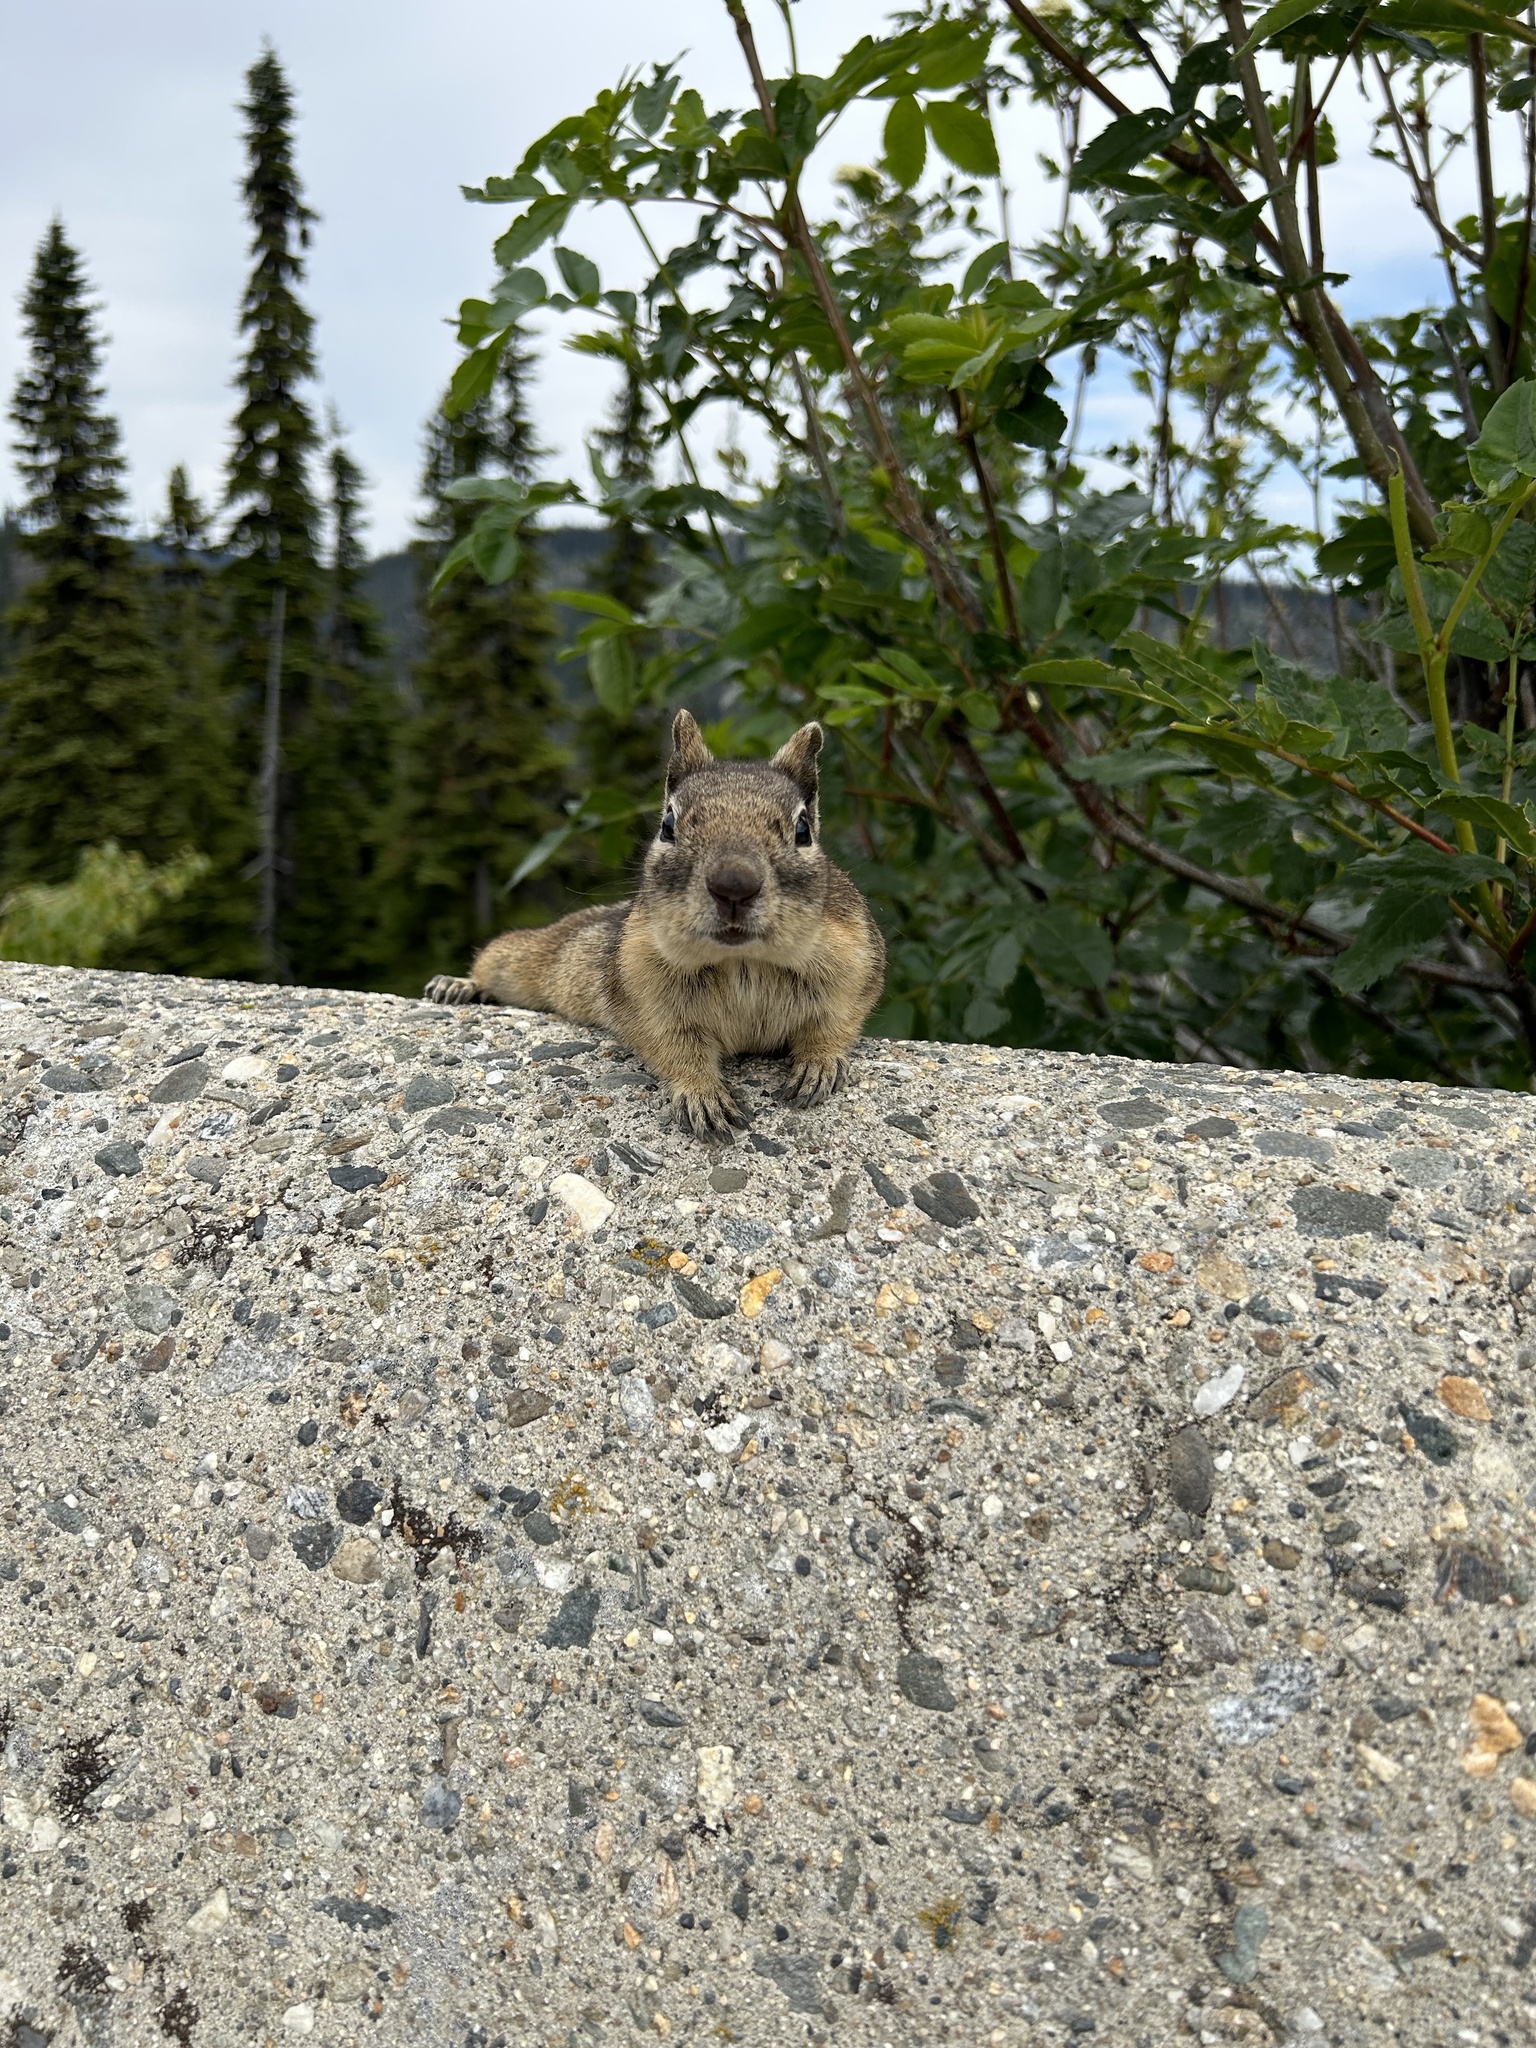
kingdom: Animalia
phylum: Chordata
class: Mammalia
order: Rodentia
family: Sciuridae
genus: Callospermophilus
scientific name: Callospermophilus saturatus
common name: Cascade golden-mantled ground squirrel
